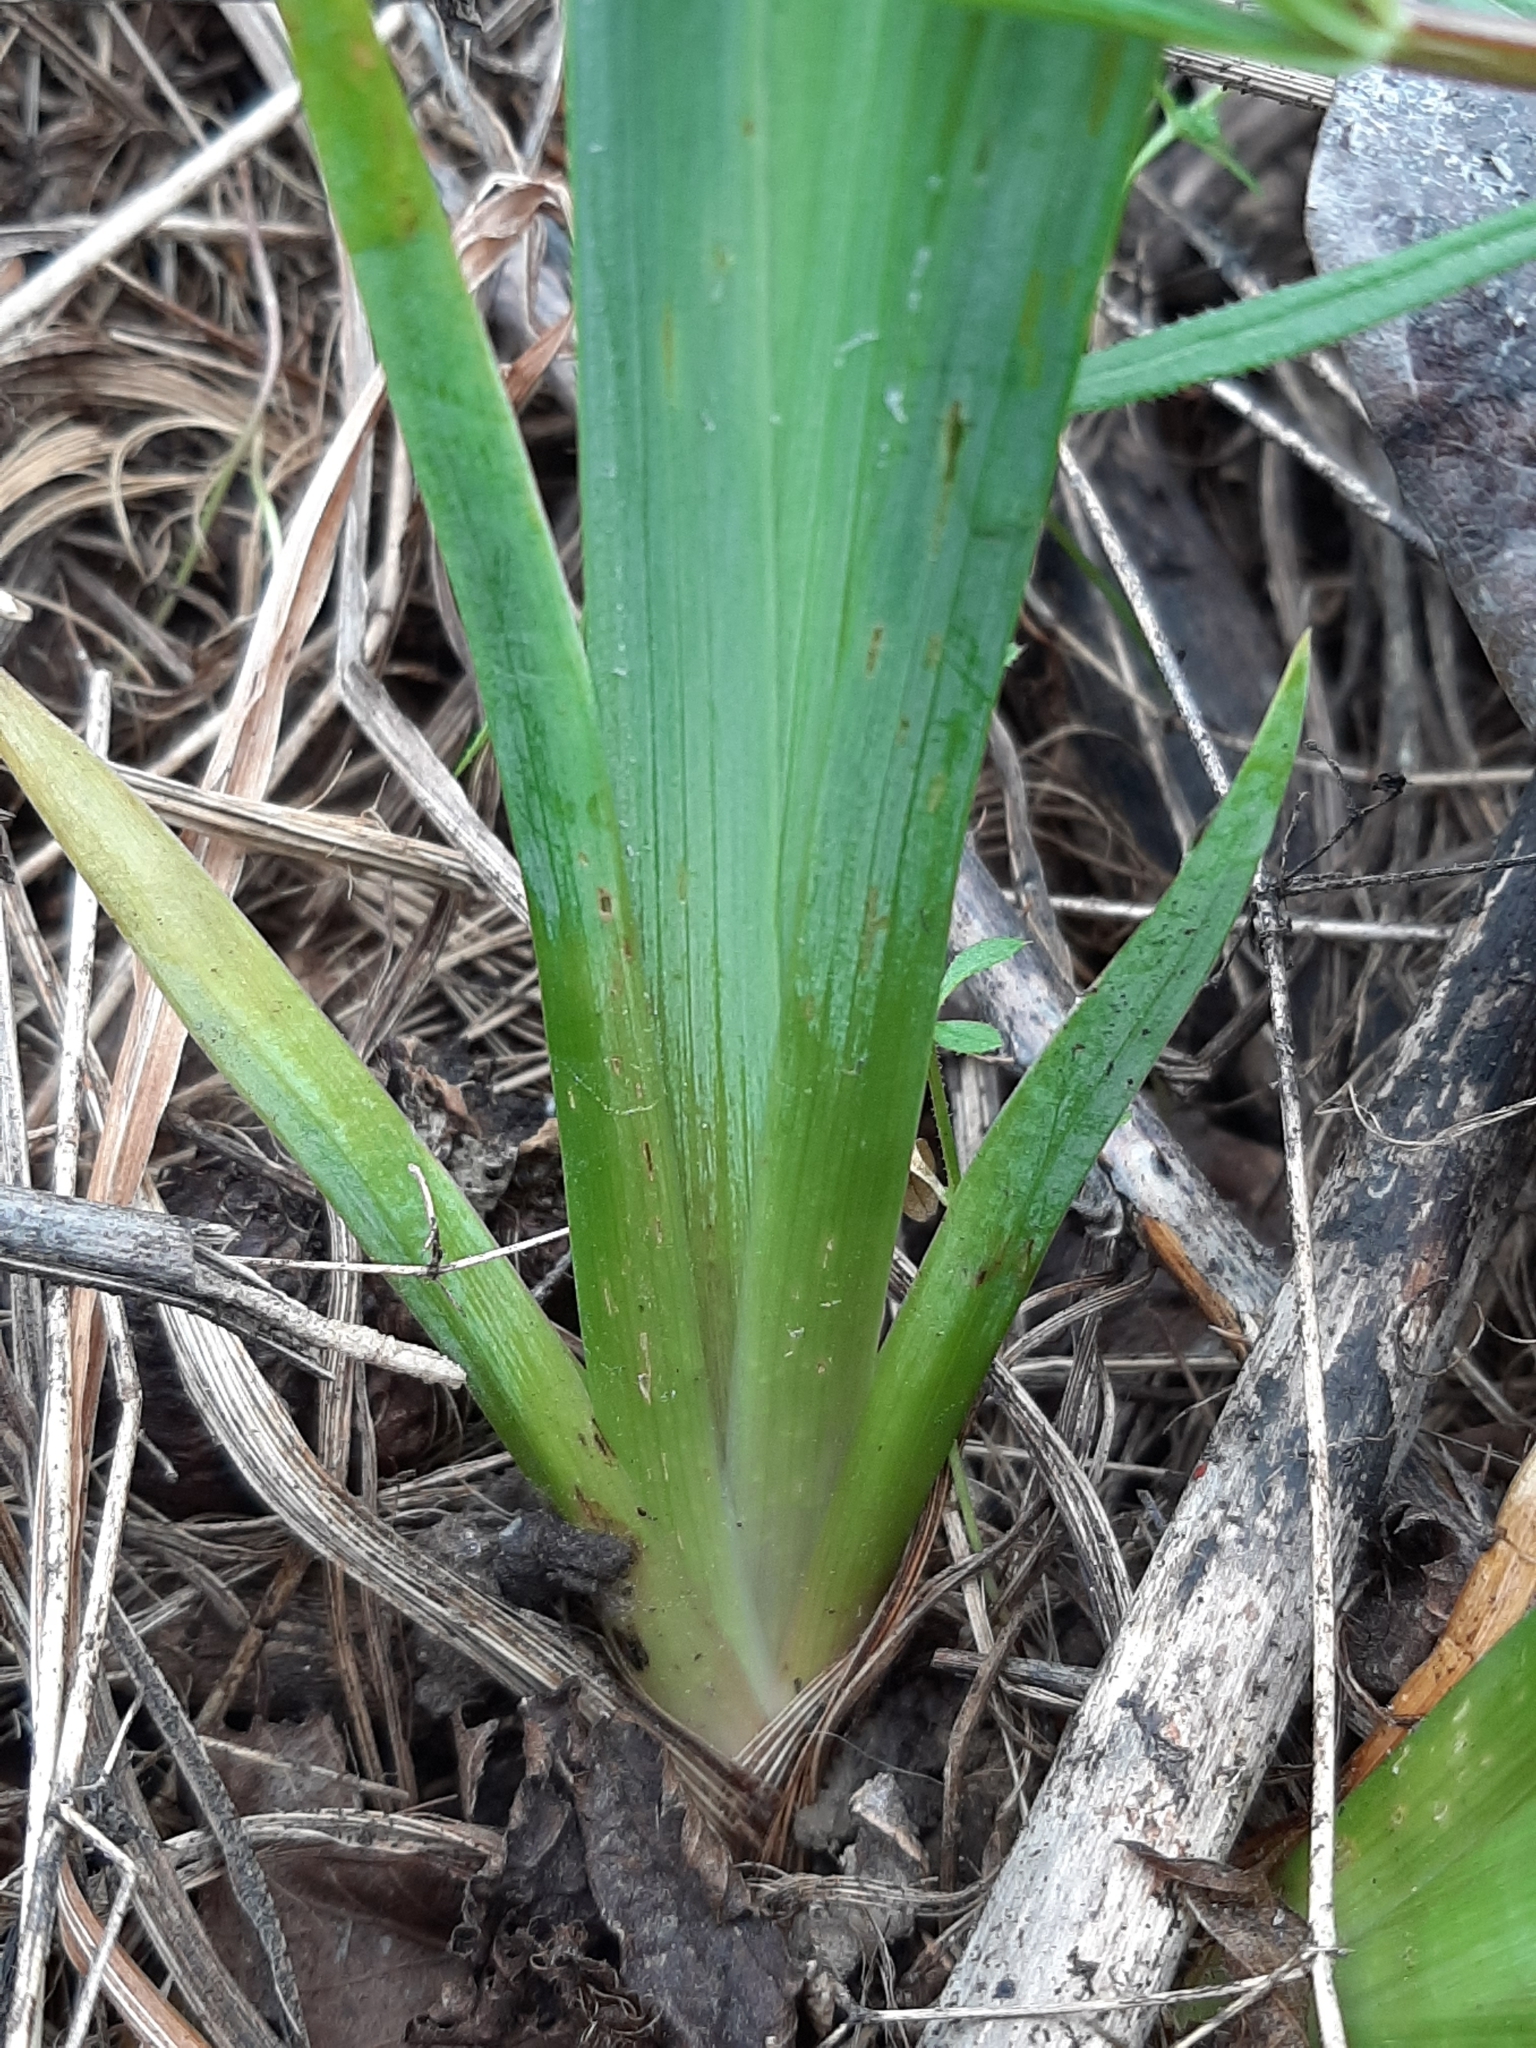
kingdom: Plantae
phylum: Tracheophyta
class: Liliopsida
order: Asparagales
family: Iridaceae
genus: Iris
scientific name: Iris pseudacorus
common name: Yellow flag
